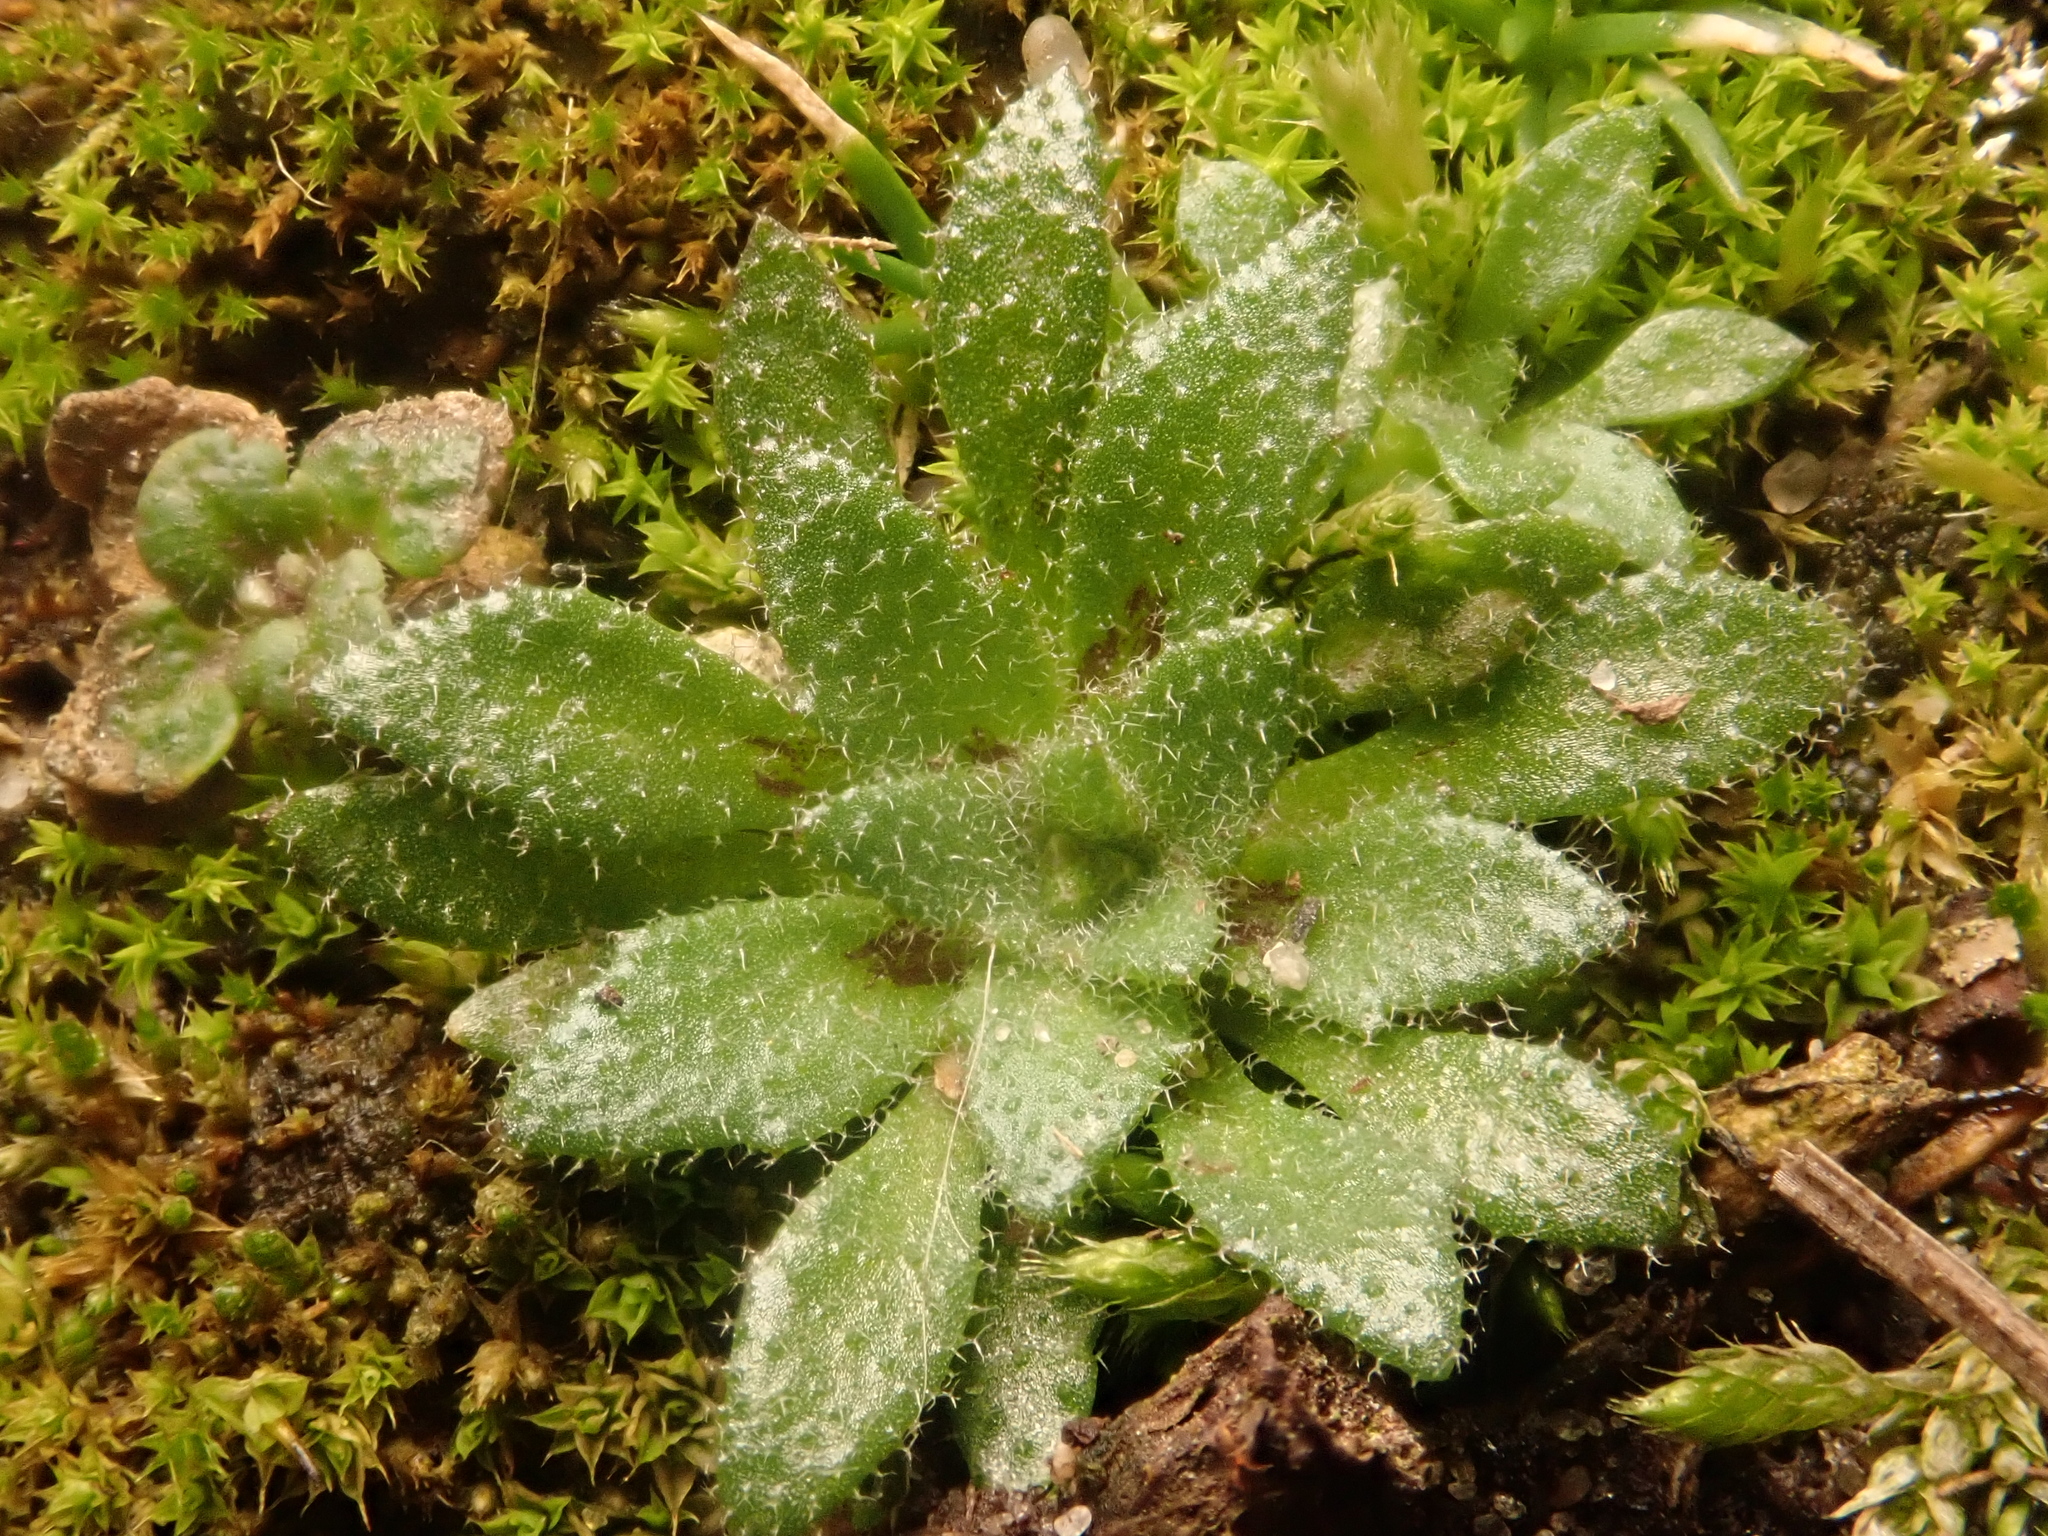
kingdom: Plantae
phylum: Tracheophyta
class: Magnoliopsida
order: Brassicales
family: Brassicaceae
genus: Draba
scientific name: Draba verna
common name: Spring draba
